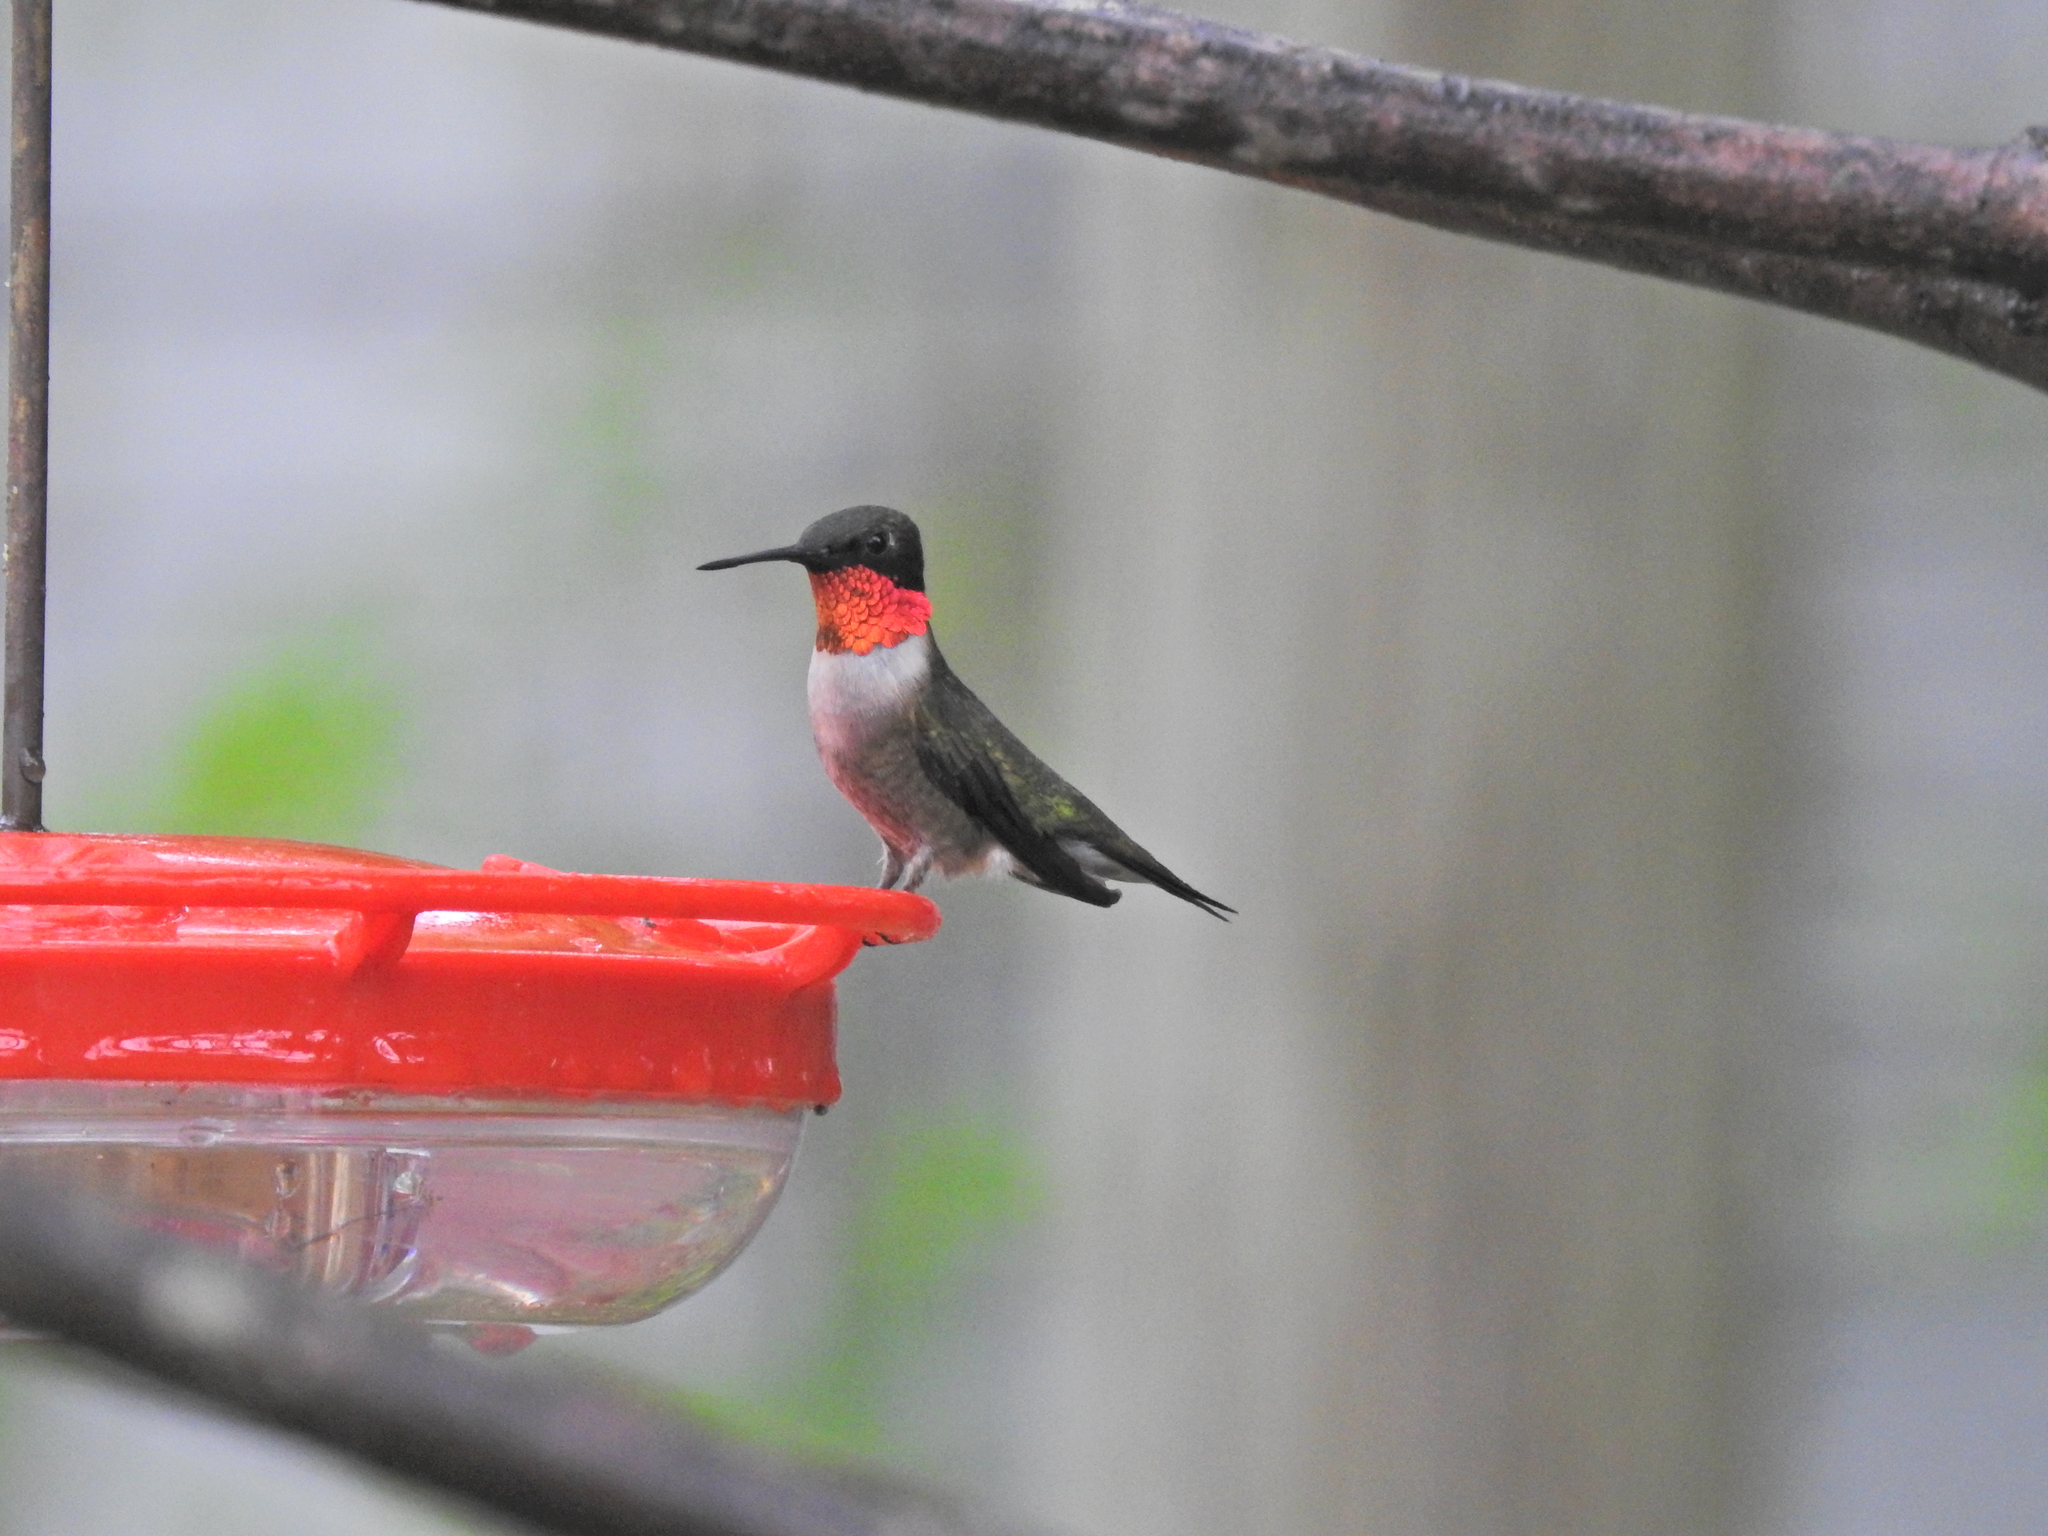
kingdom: Animalia
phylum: Chordata
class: Aves
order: Apodiformes
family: Trochilidae
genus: Archilochus
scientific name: Archilochus colubris
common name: Ruby-throated hummingbird
